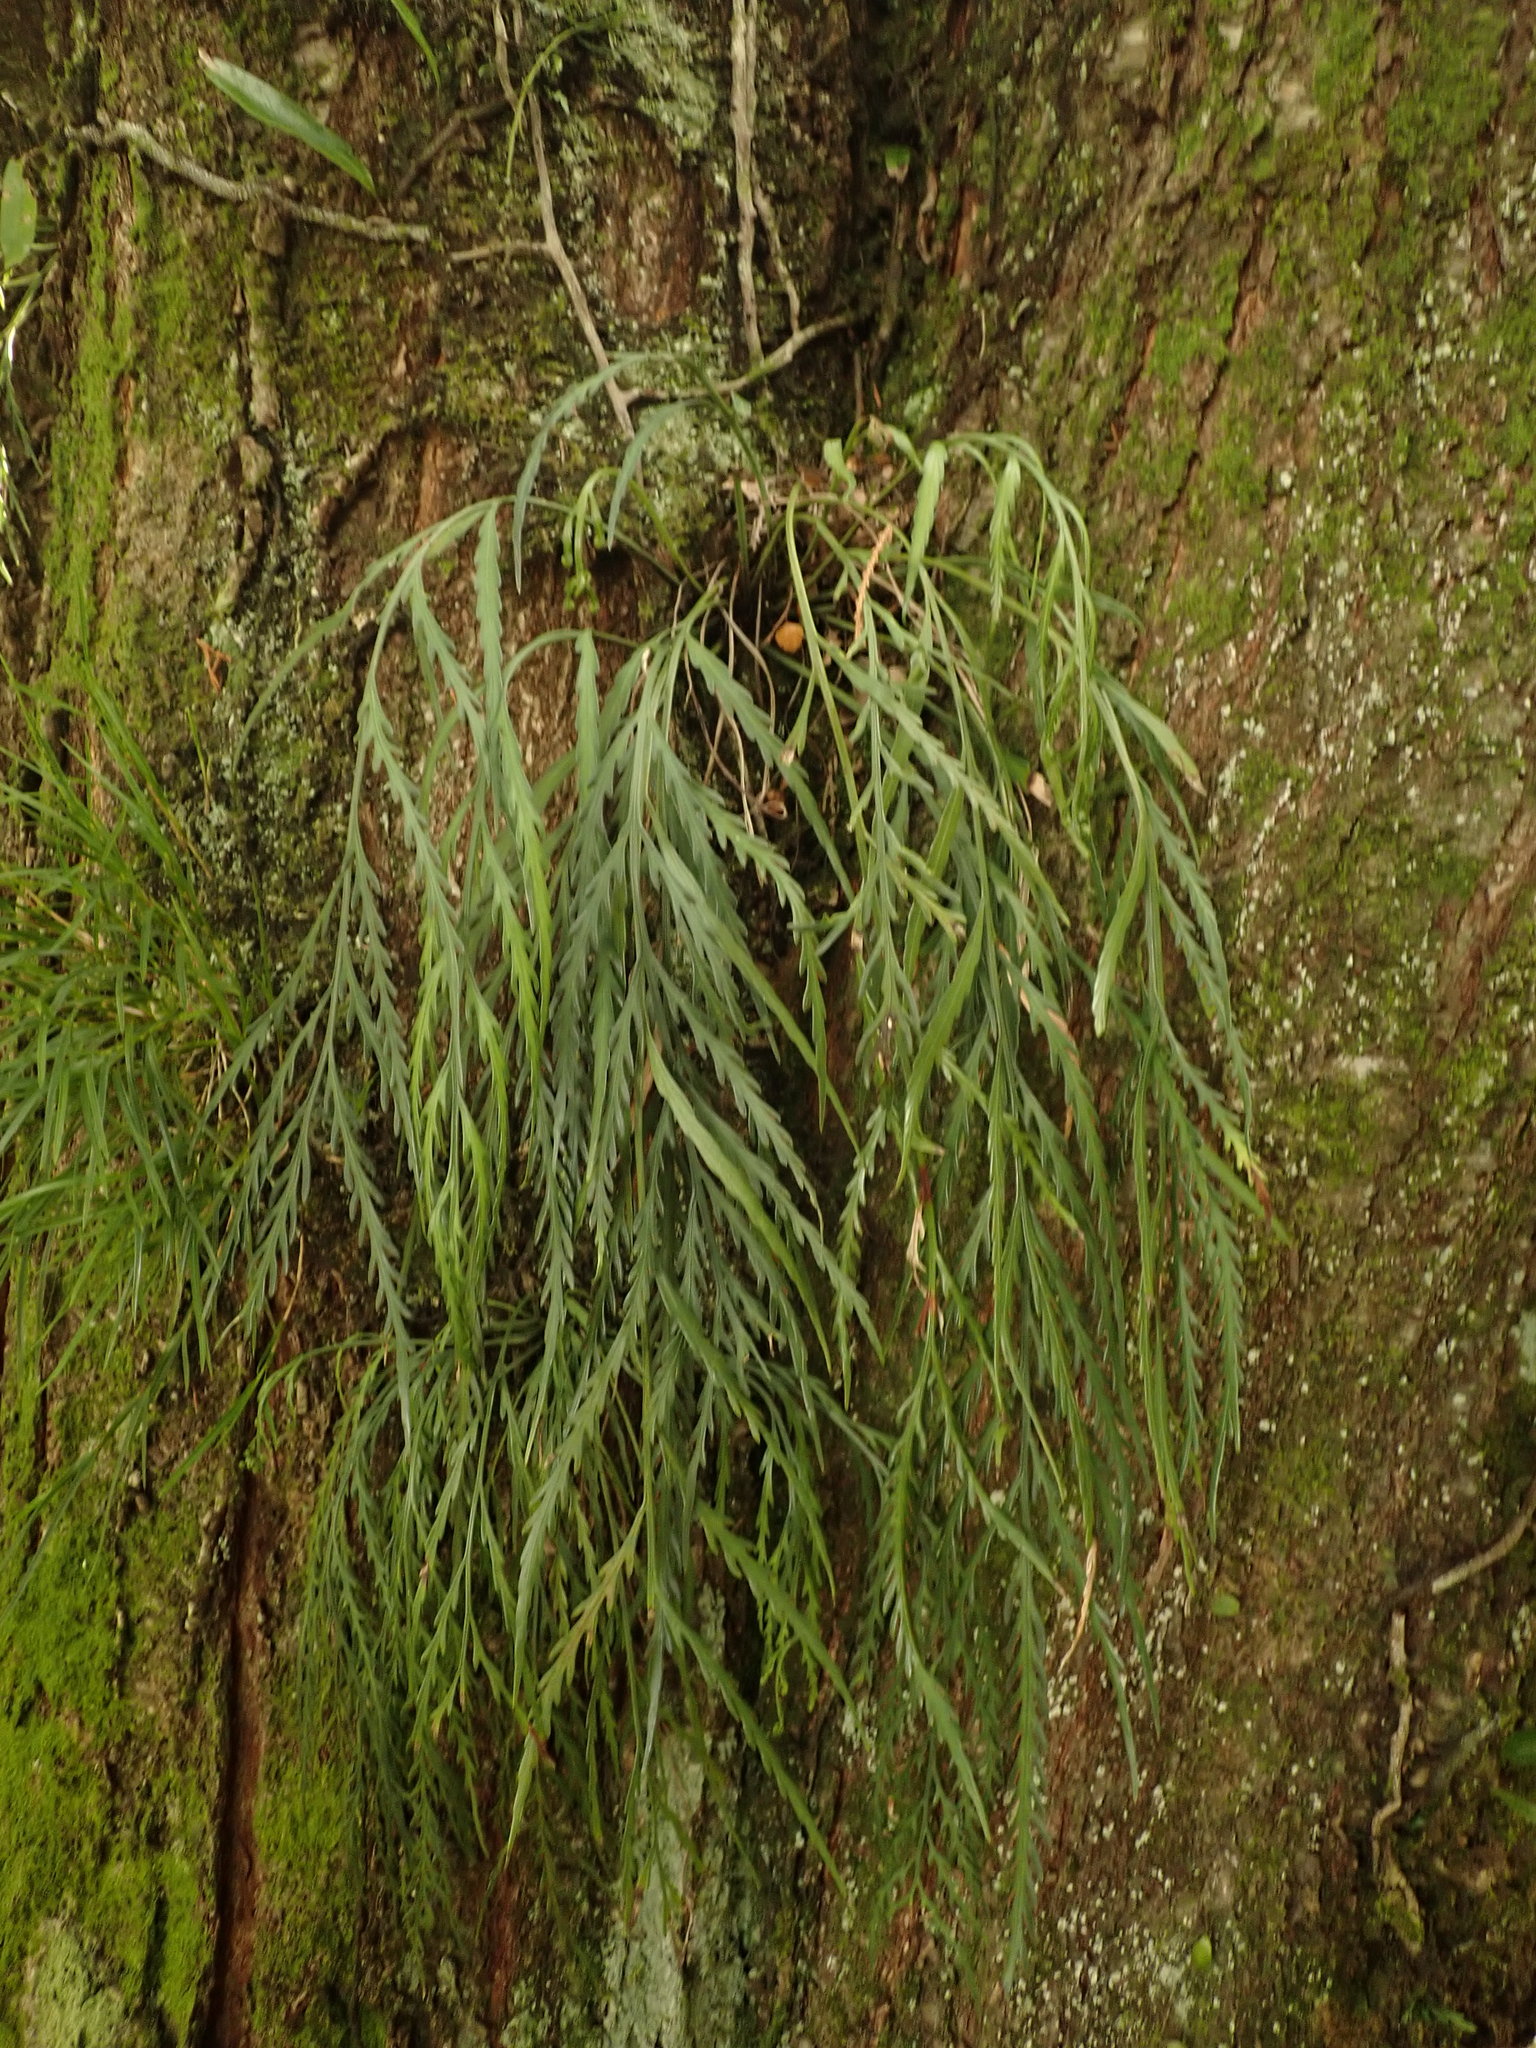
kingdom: Plantae
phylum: Tracheophyta
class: Polypodiopsida
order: Polypodiales
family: Aspleniaceae
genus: Asplenium
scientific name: Asplenium flaccidum
